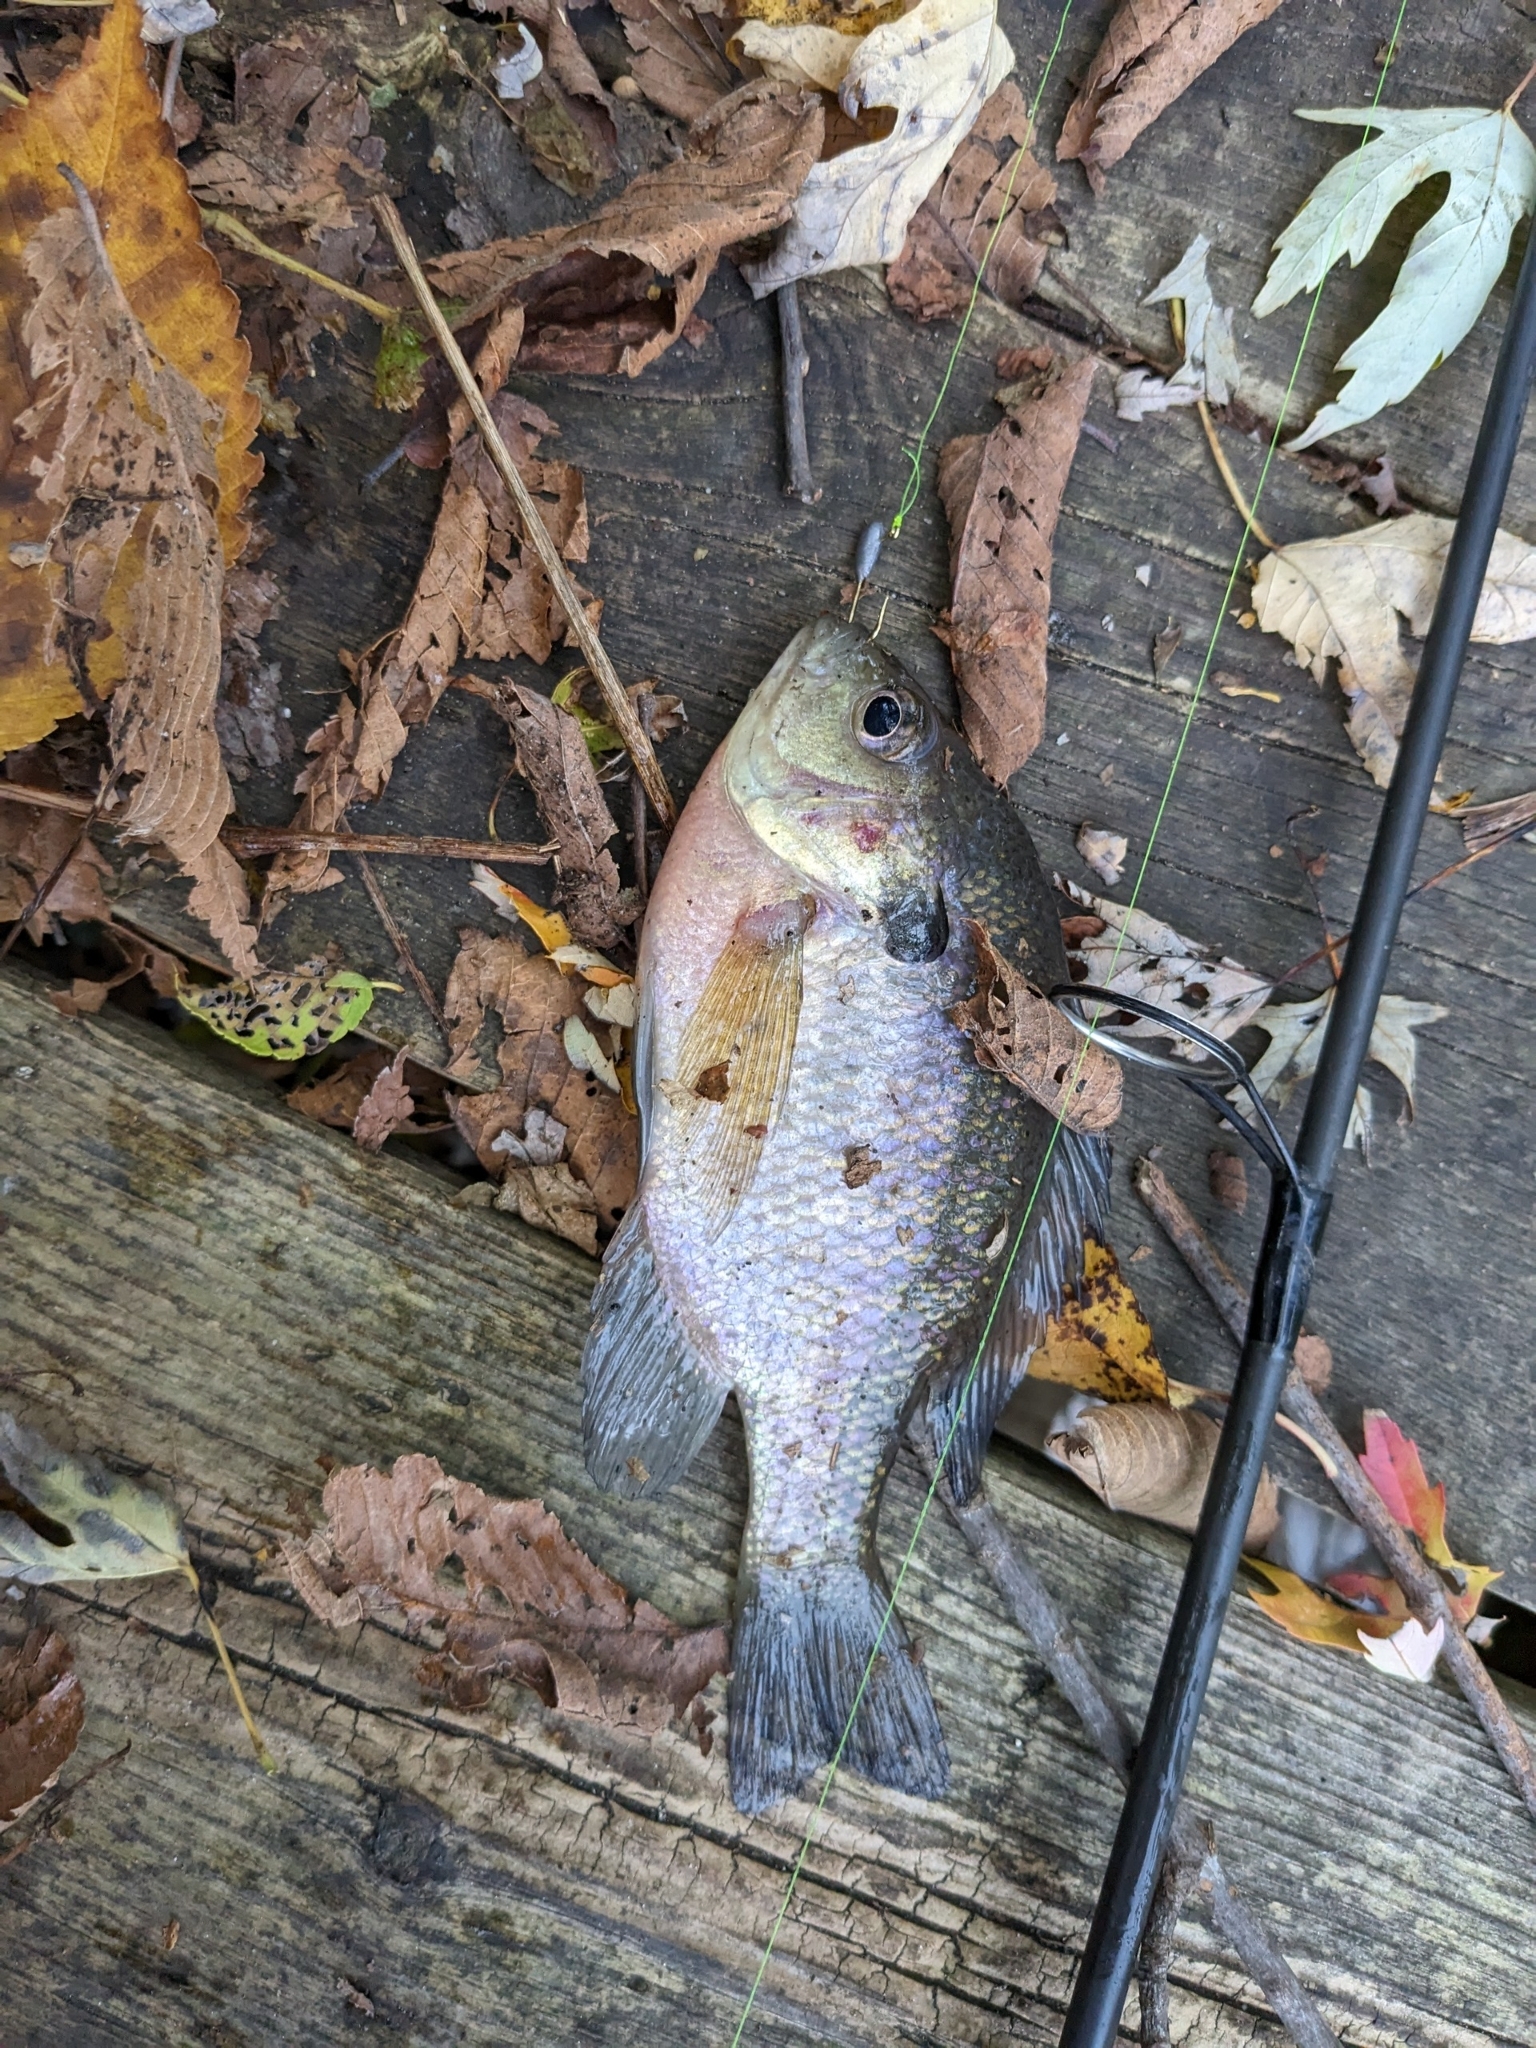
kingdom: Animalia
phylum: Chordata
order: Perciformes
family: Centrarchidae
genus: Lepomis
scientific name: Lepomis macrochirus
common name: Bluegill
